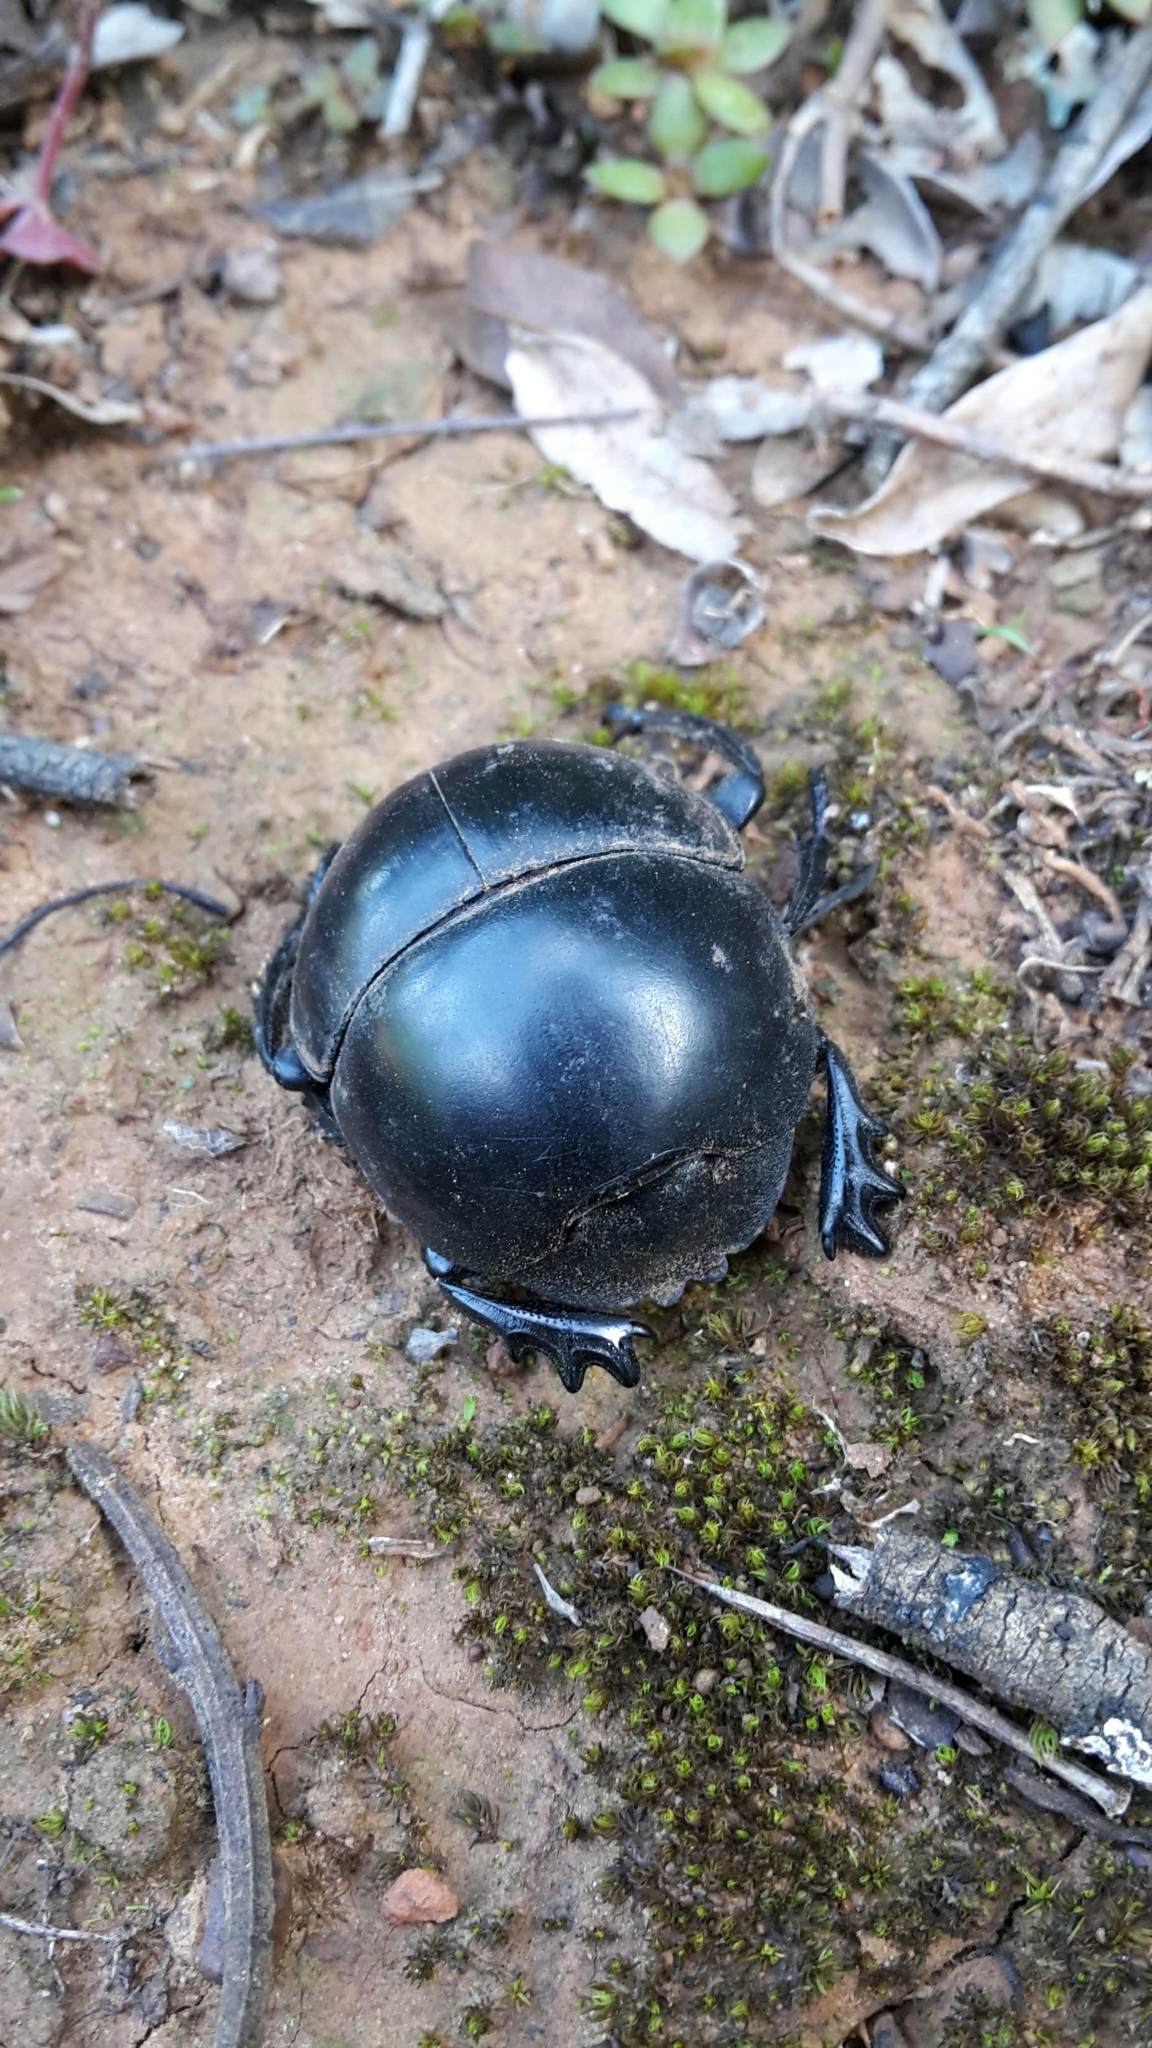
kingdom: Animalia
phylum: Arthropoda
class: Insecta
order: Coleoptera
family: Scarabaeidae
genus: Circellium
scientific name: Circellium bacchus
